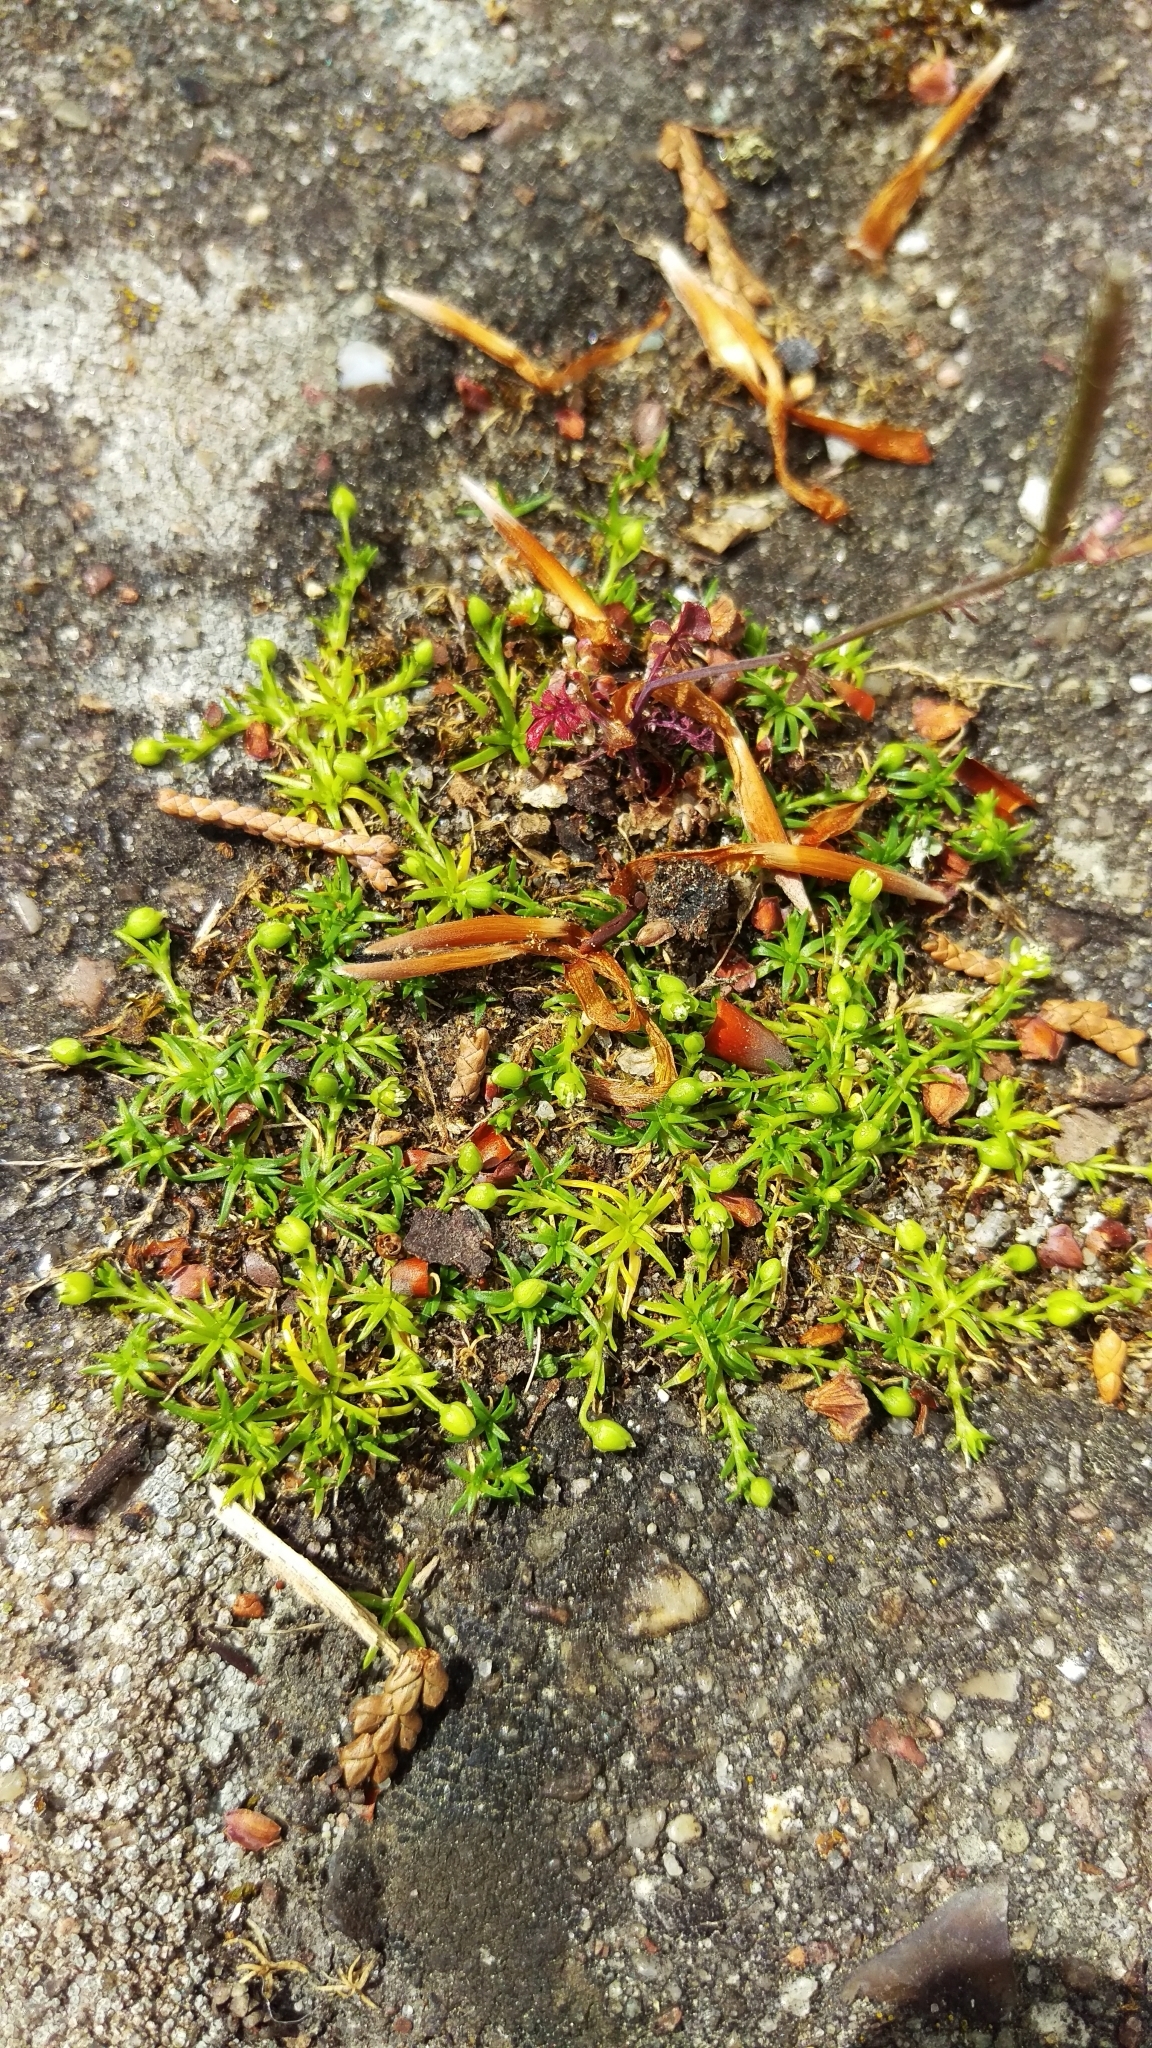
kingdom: Plantae
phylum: Tracheophyta
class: Magnoliopsida
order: Caryophyllales
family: Caryophyllaceae
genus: Sagina
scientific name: Sagina procumbens
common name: Procumbent pearlwort
